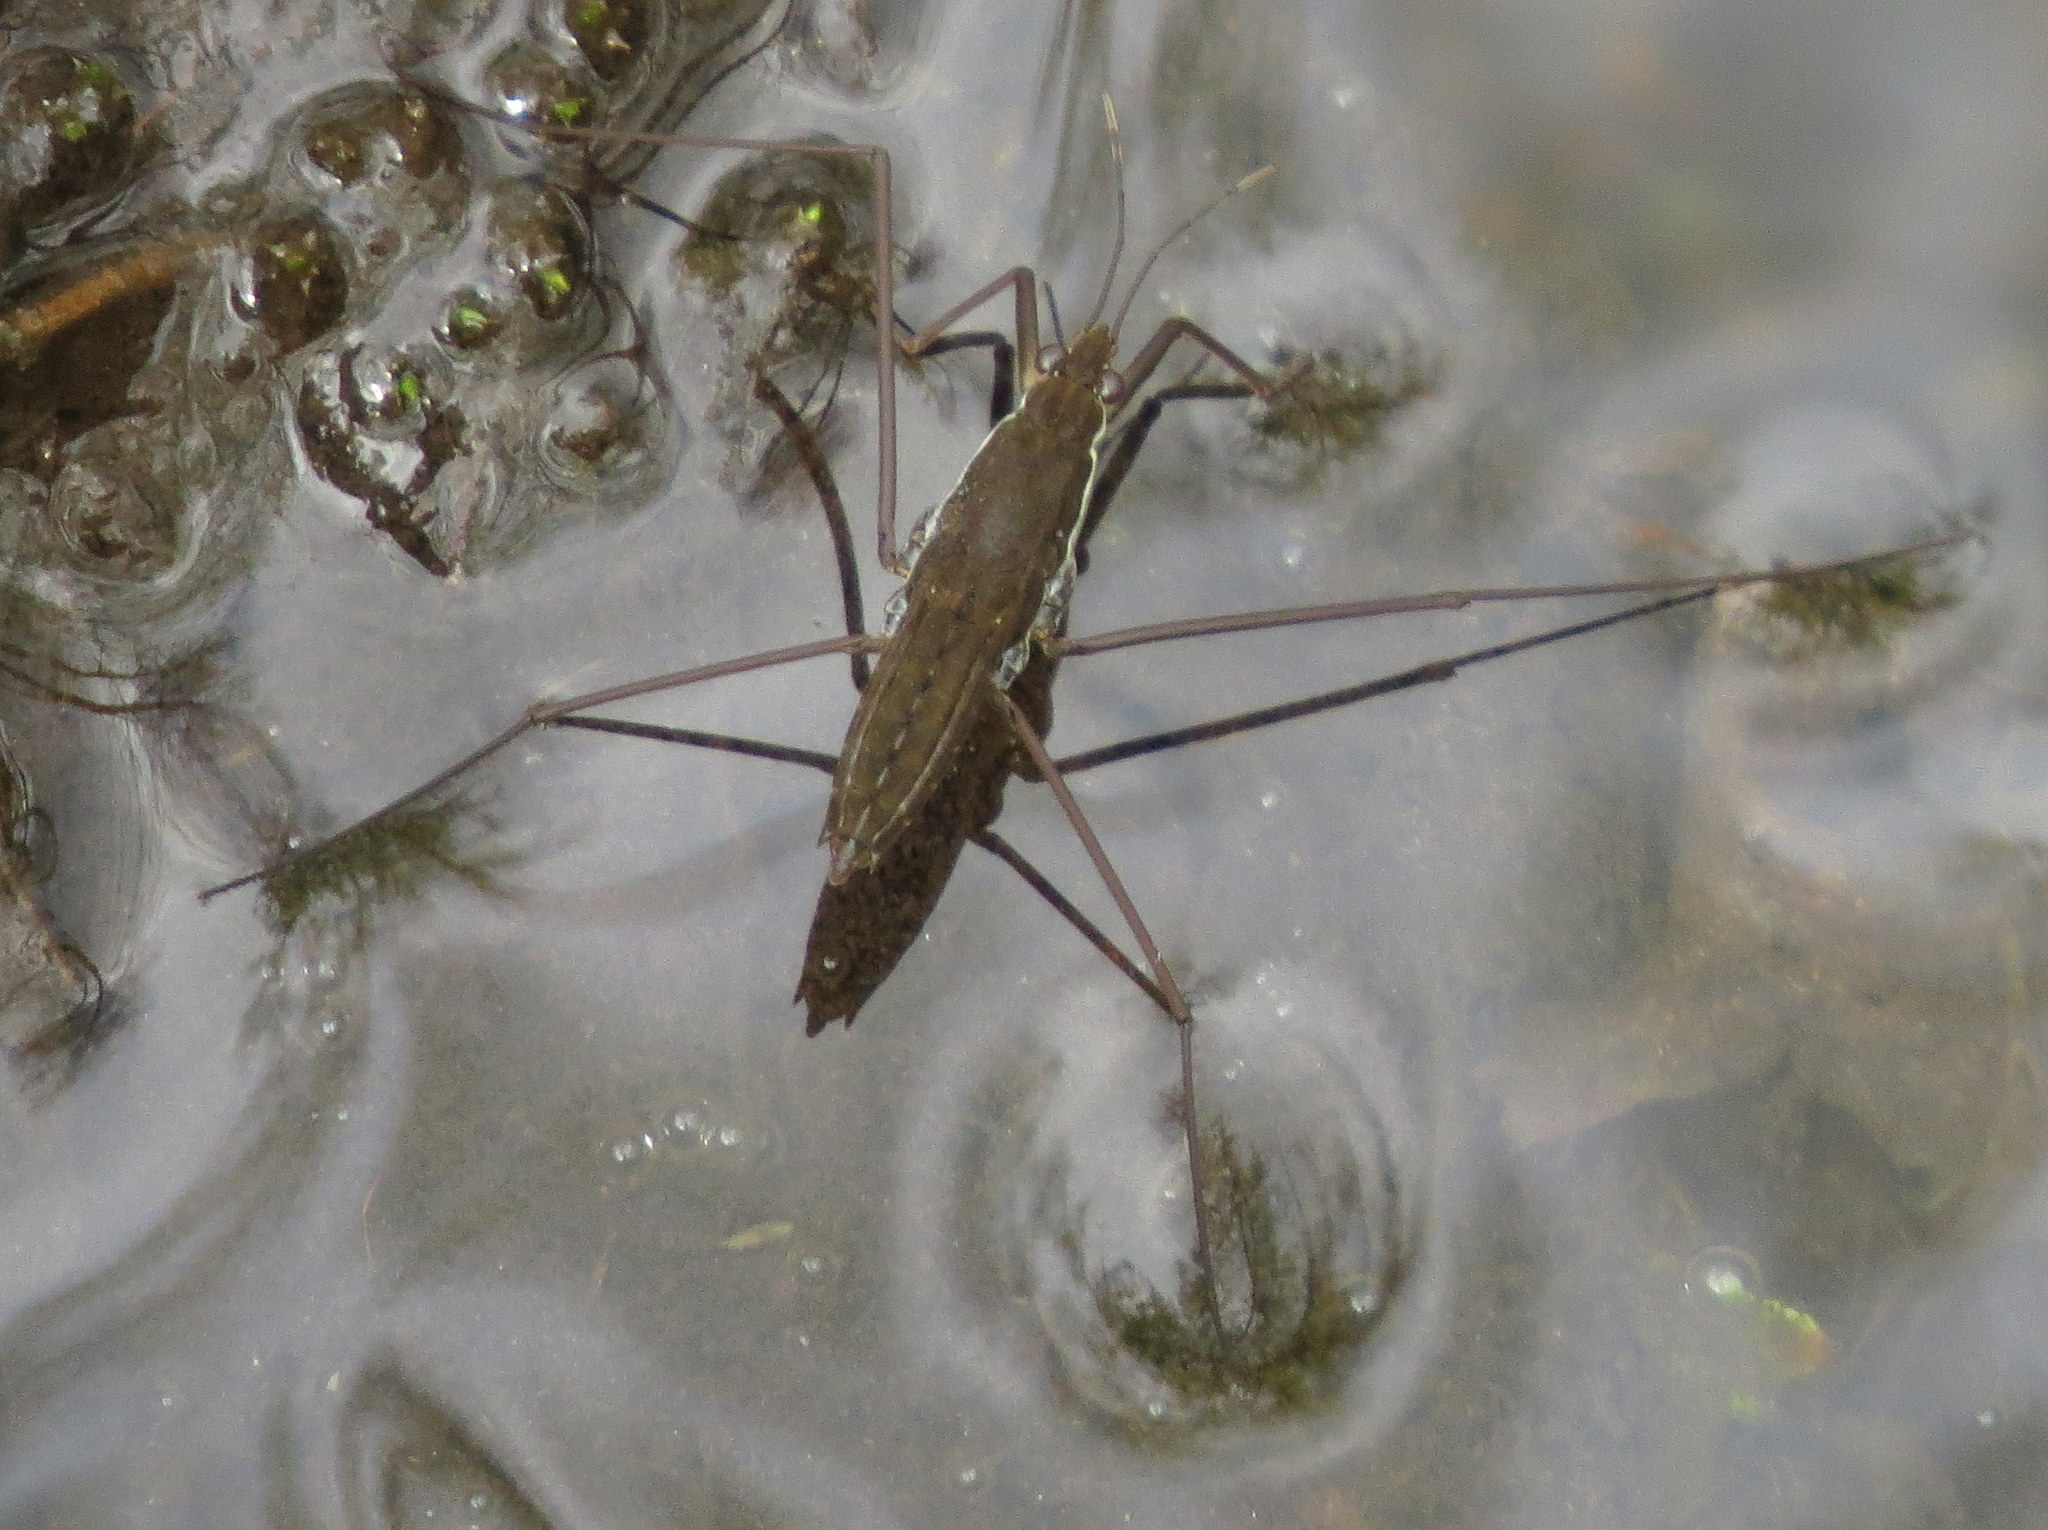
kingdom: Animalia
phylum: Arthropoda
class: Insecta
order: Hemiptera
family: Gerridae
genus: Aquarius
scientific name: Aquarius remigis
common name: Common water strider
